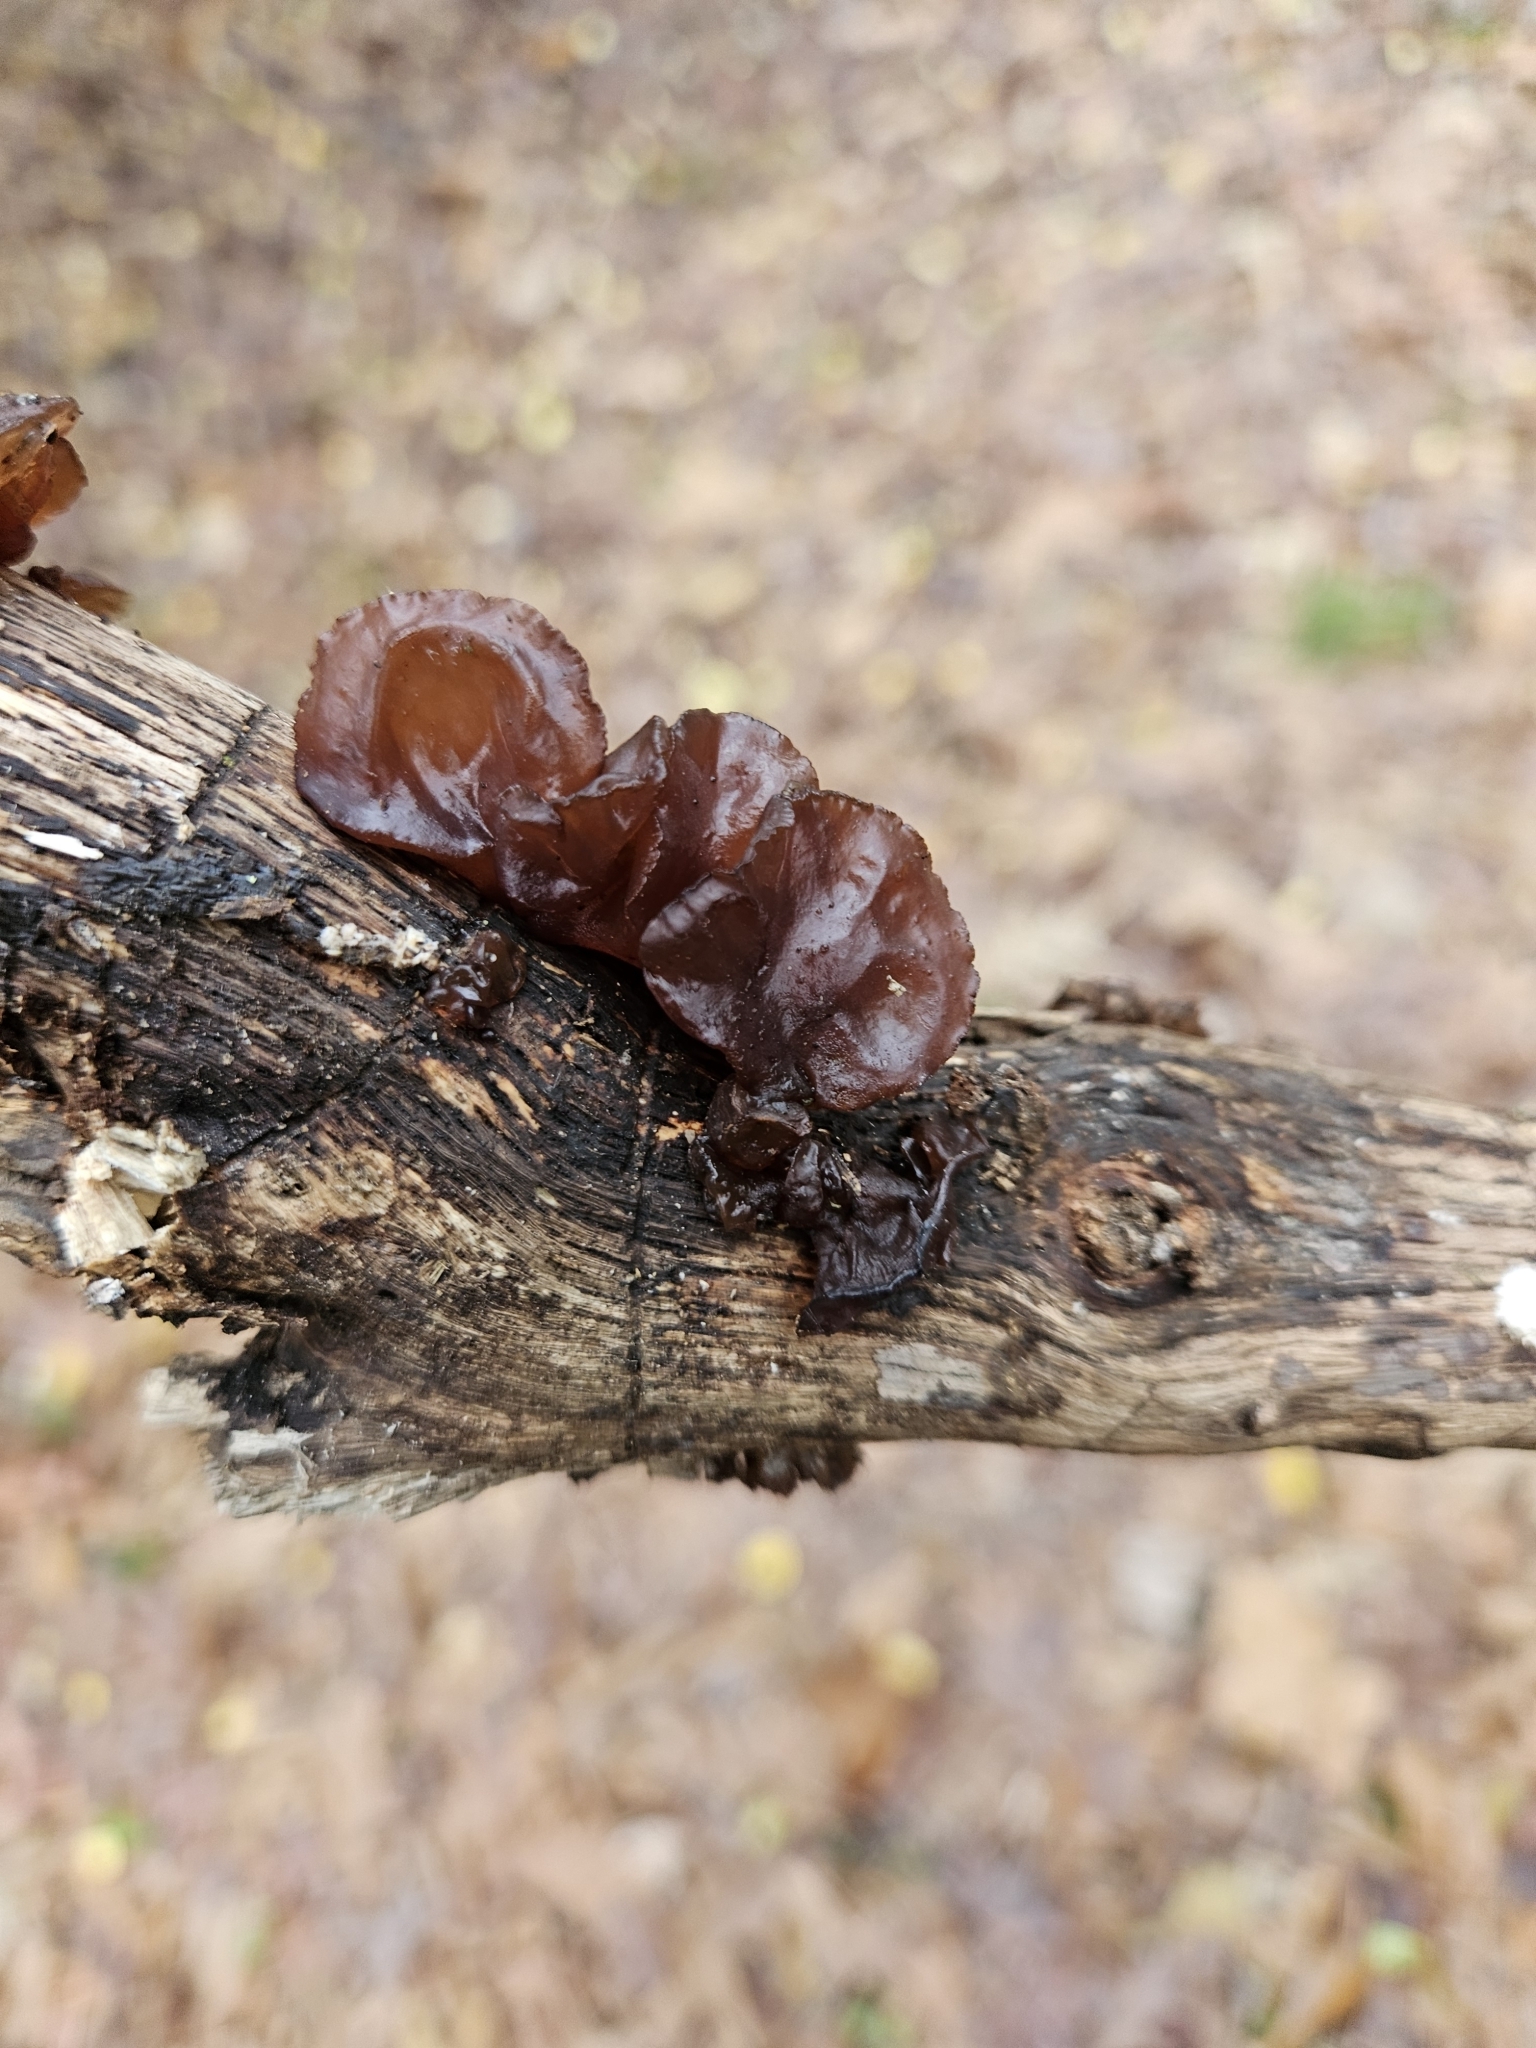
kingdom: Fungi
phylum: Basidiomycota
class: Agaricomycetes
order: Auriculariales
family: Auriculariaceae
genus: Exidia
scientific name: Exidia
